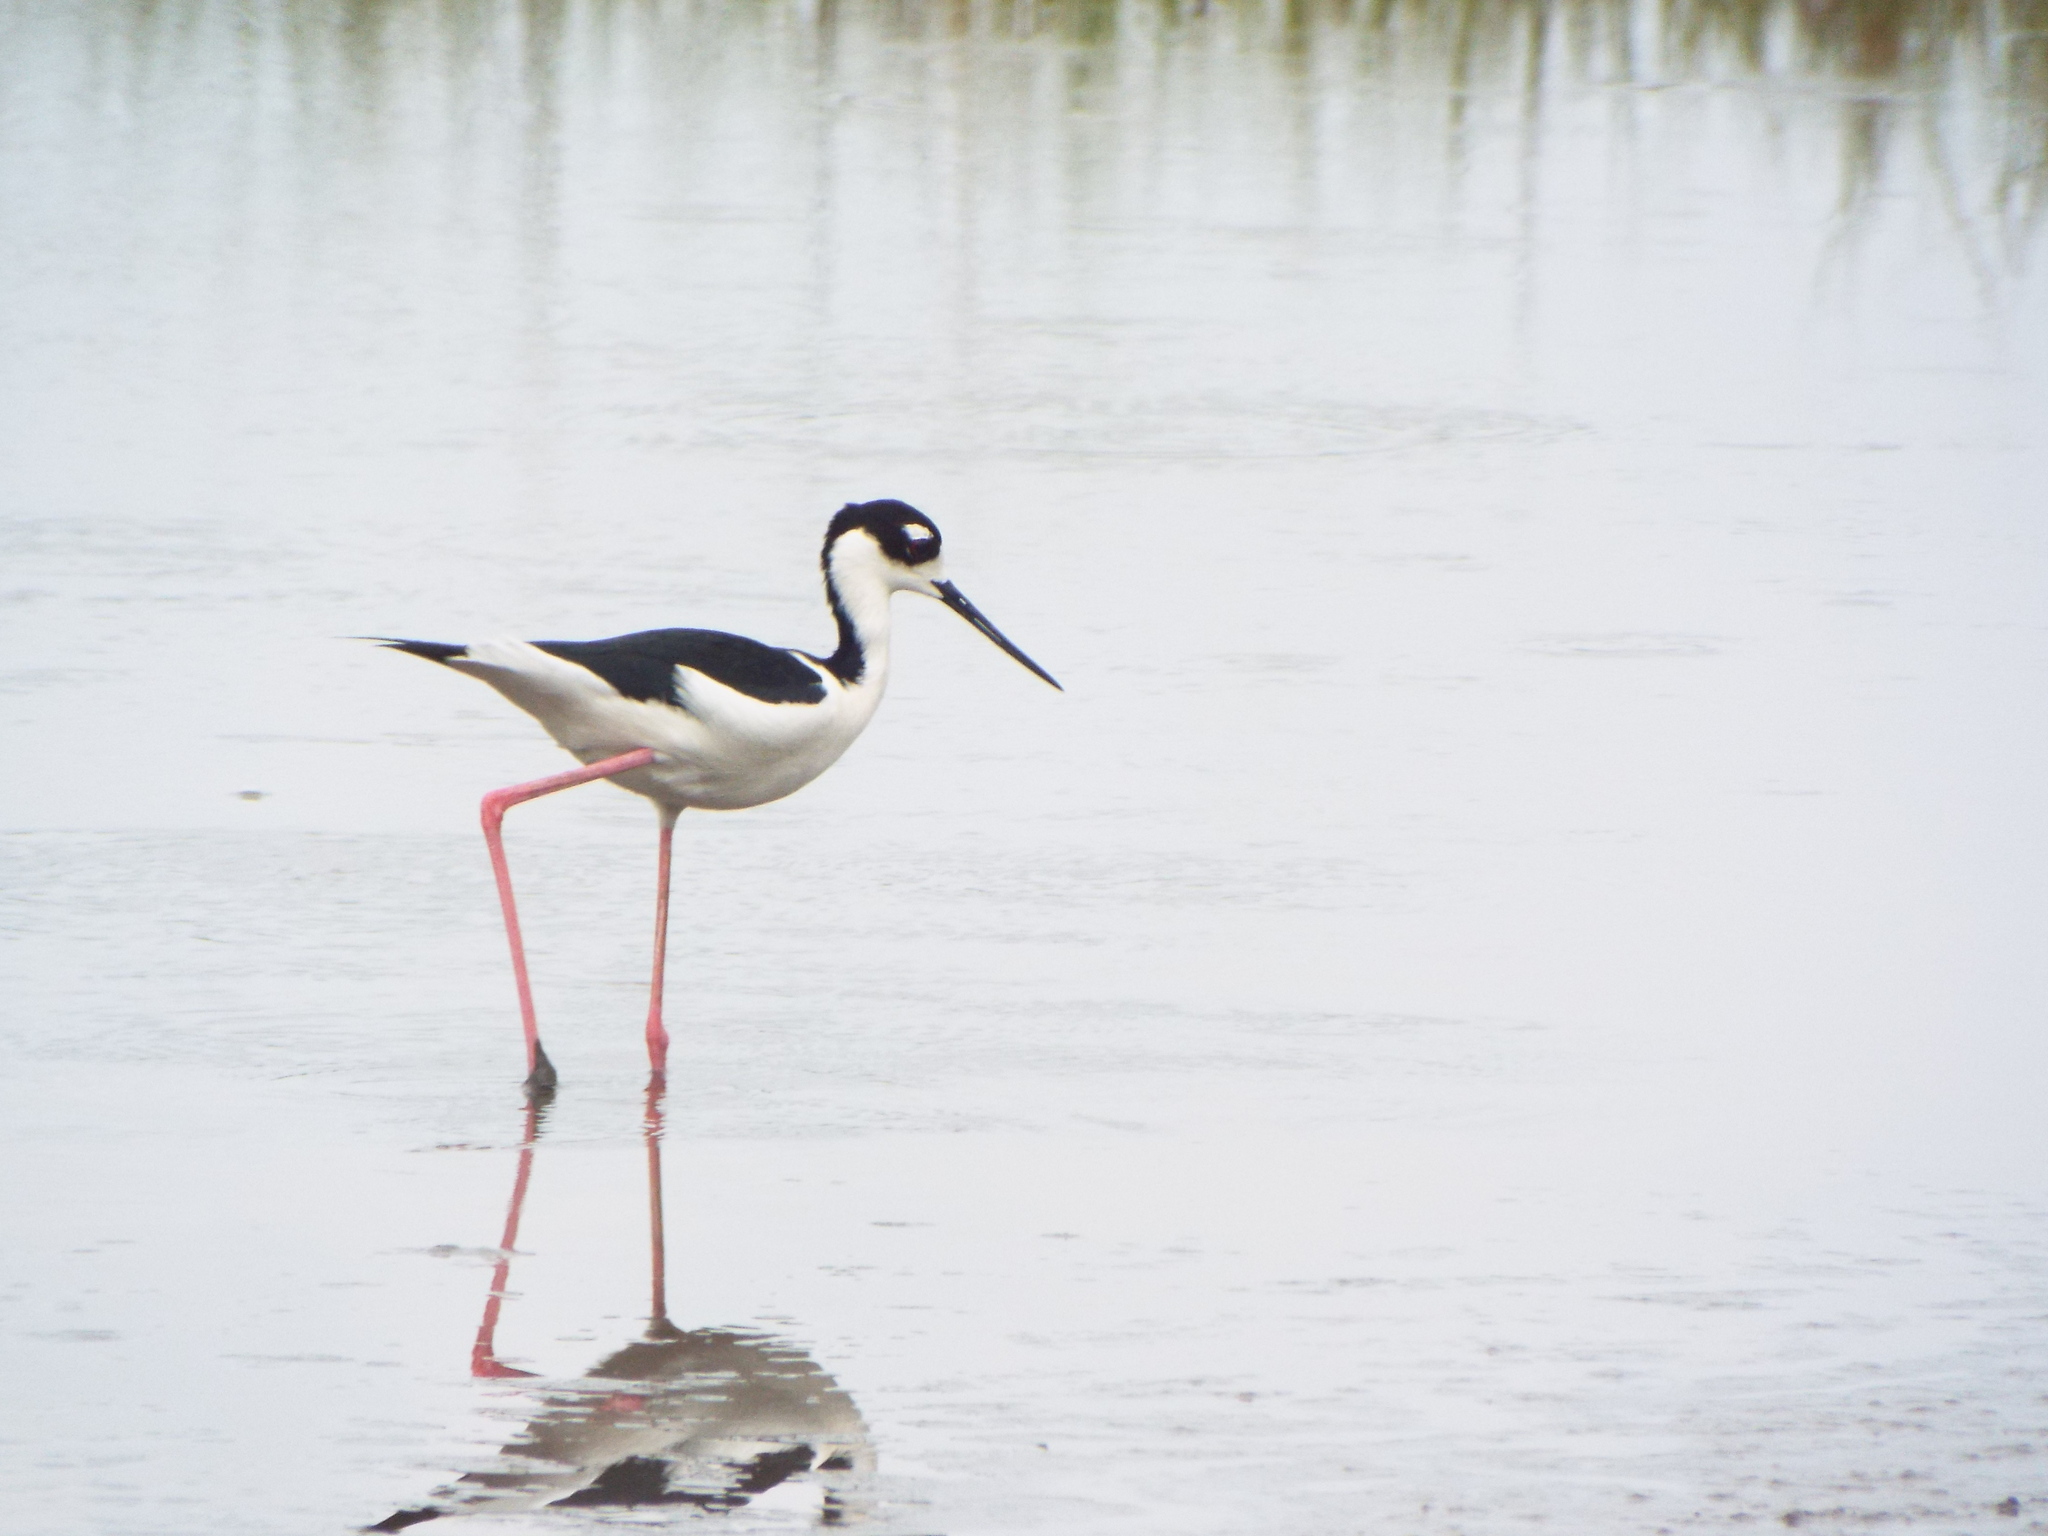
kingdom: Animalia
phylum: Chordata
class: Aves
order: Charadriiformes
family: Recurvirostridae
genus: Himantopus
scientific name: Himantopus mexicanus
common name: Black-necked stilt
